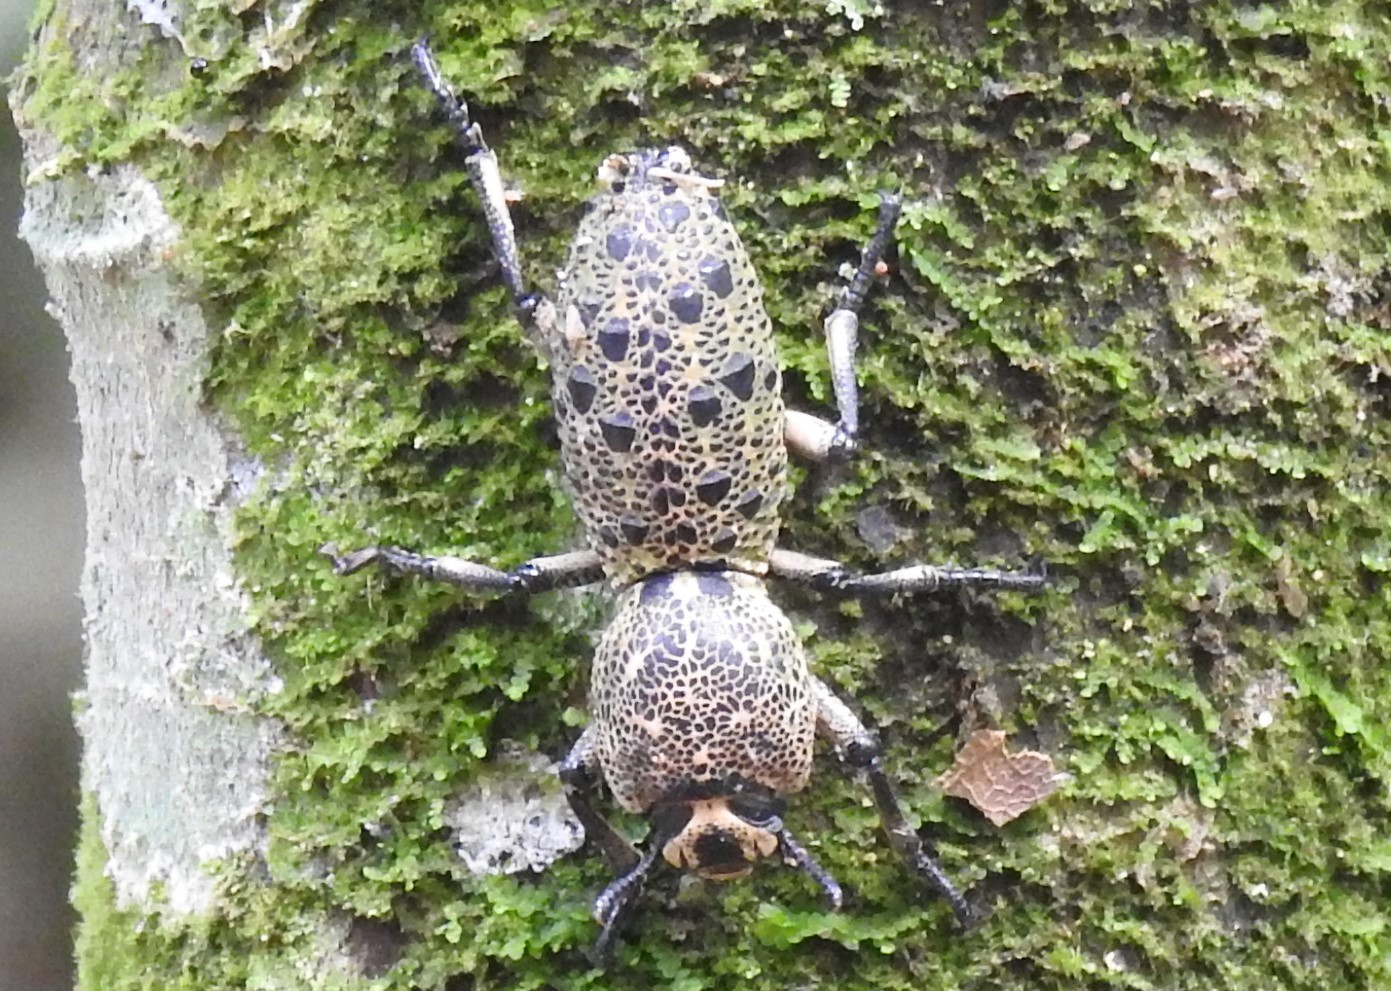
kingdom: Animalia
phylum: Arthropoda
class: Insecta
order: Coleoptera
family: Zopheridae
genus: Zopherus
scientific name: Zopherus
